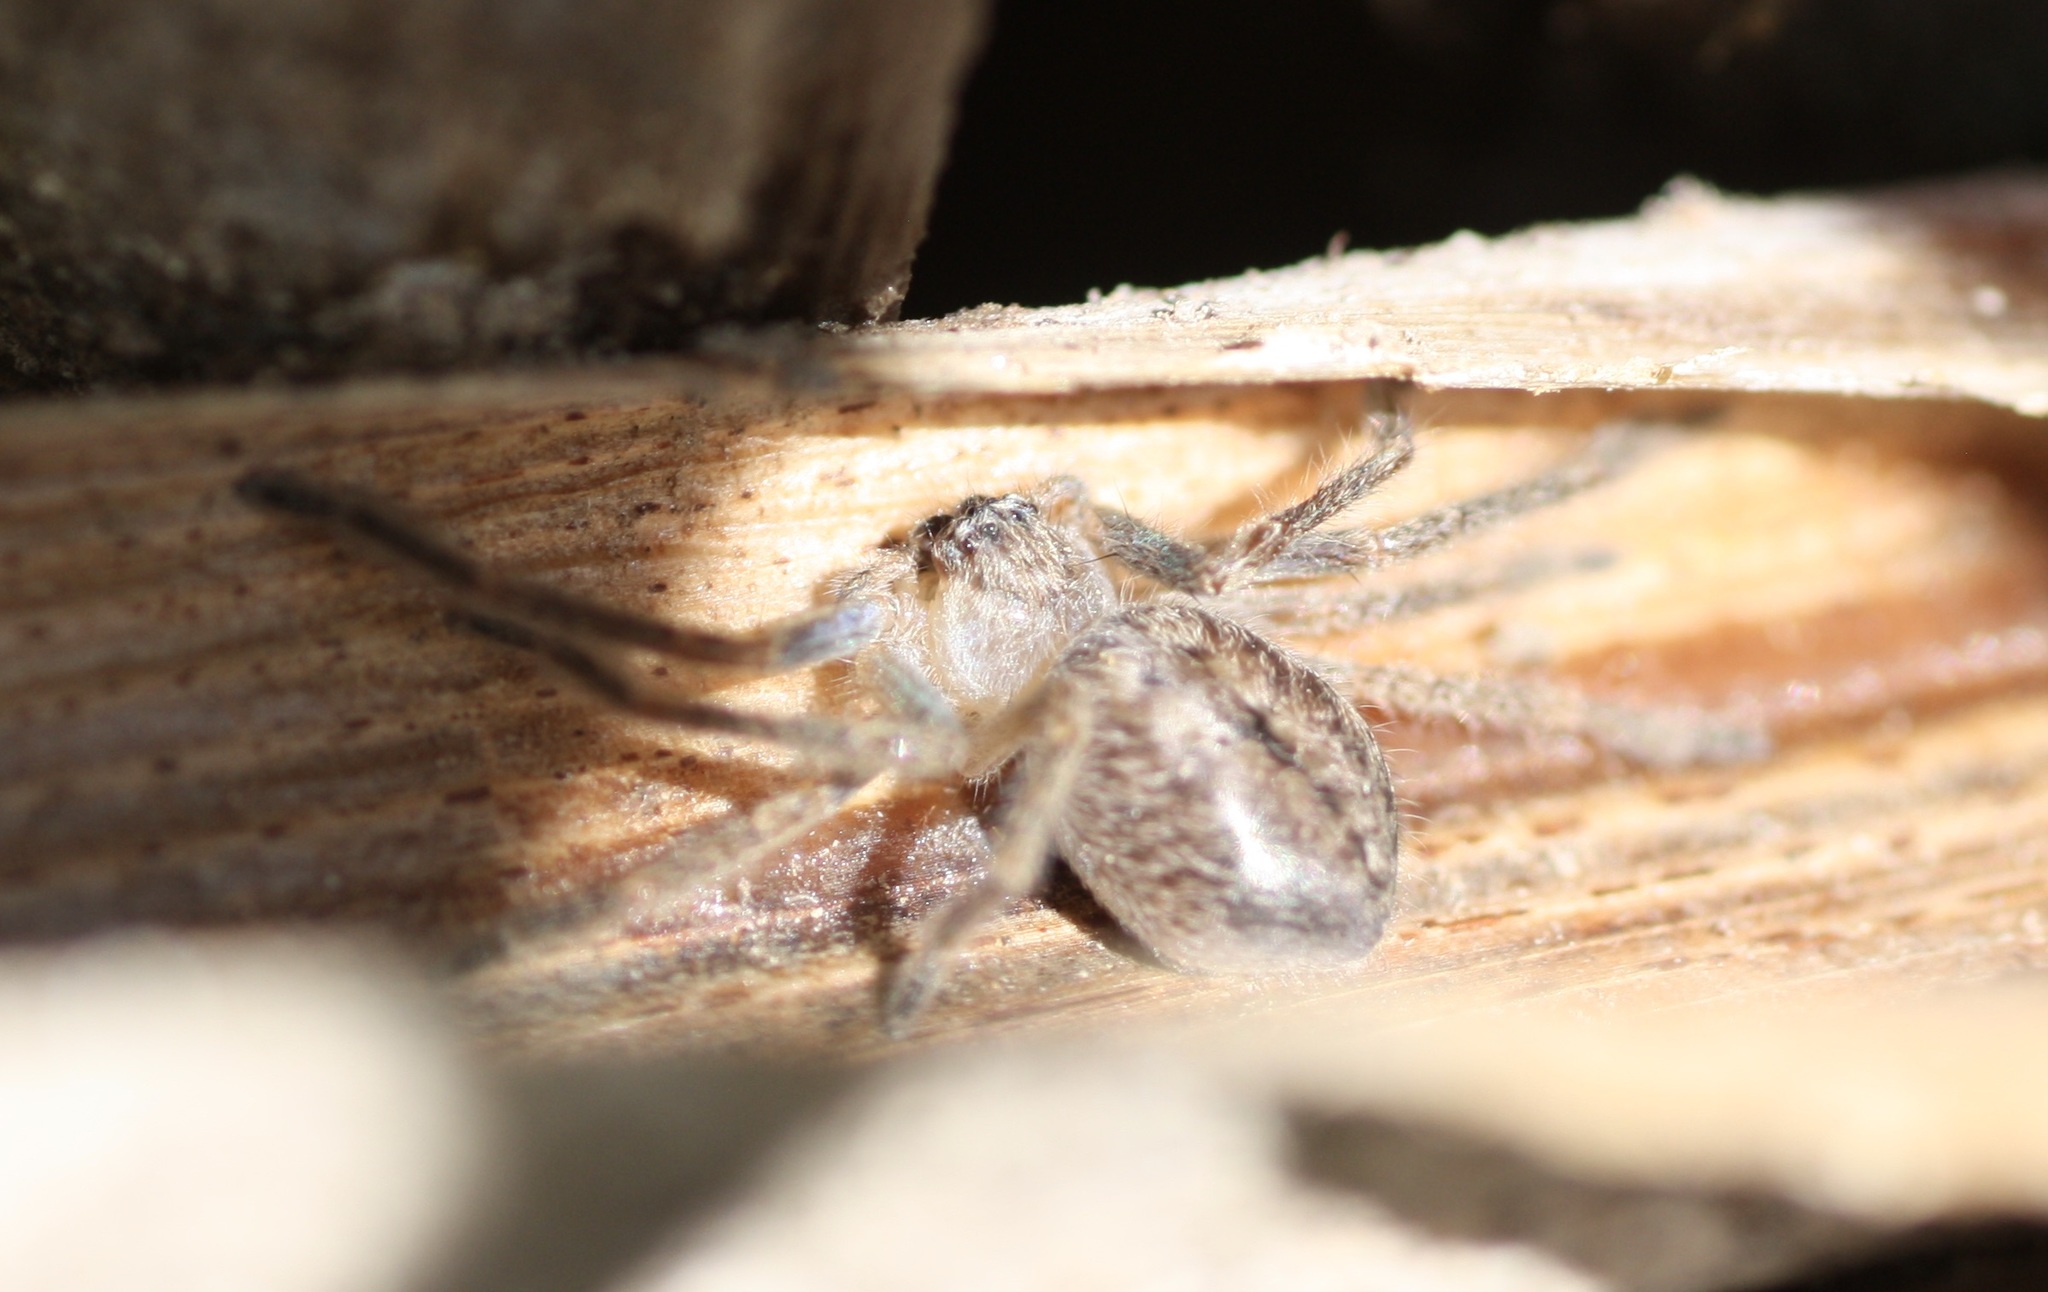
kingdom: Animalia
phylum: Arthropoda
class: Arachnida
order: Araneae
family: Sparassidae
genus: Olios
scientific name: Olios giganteus
